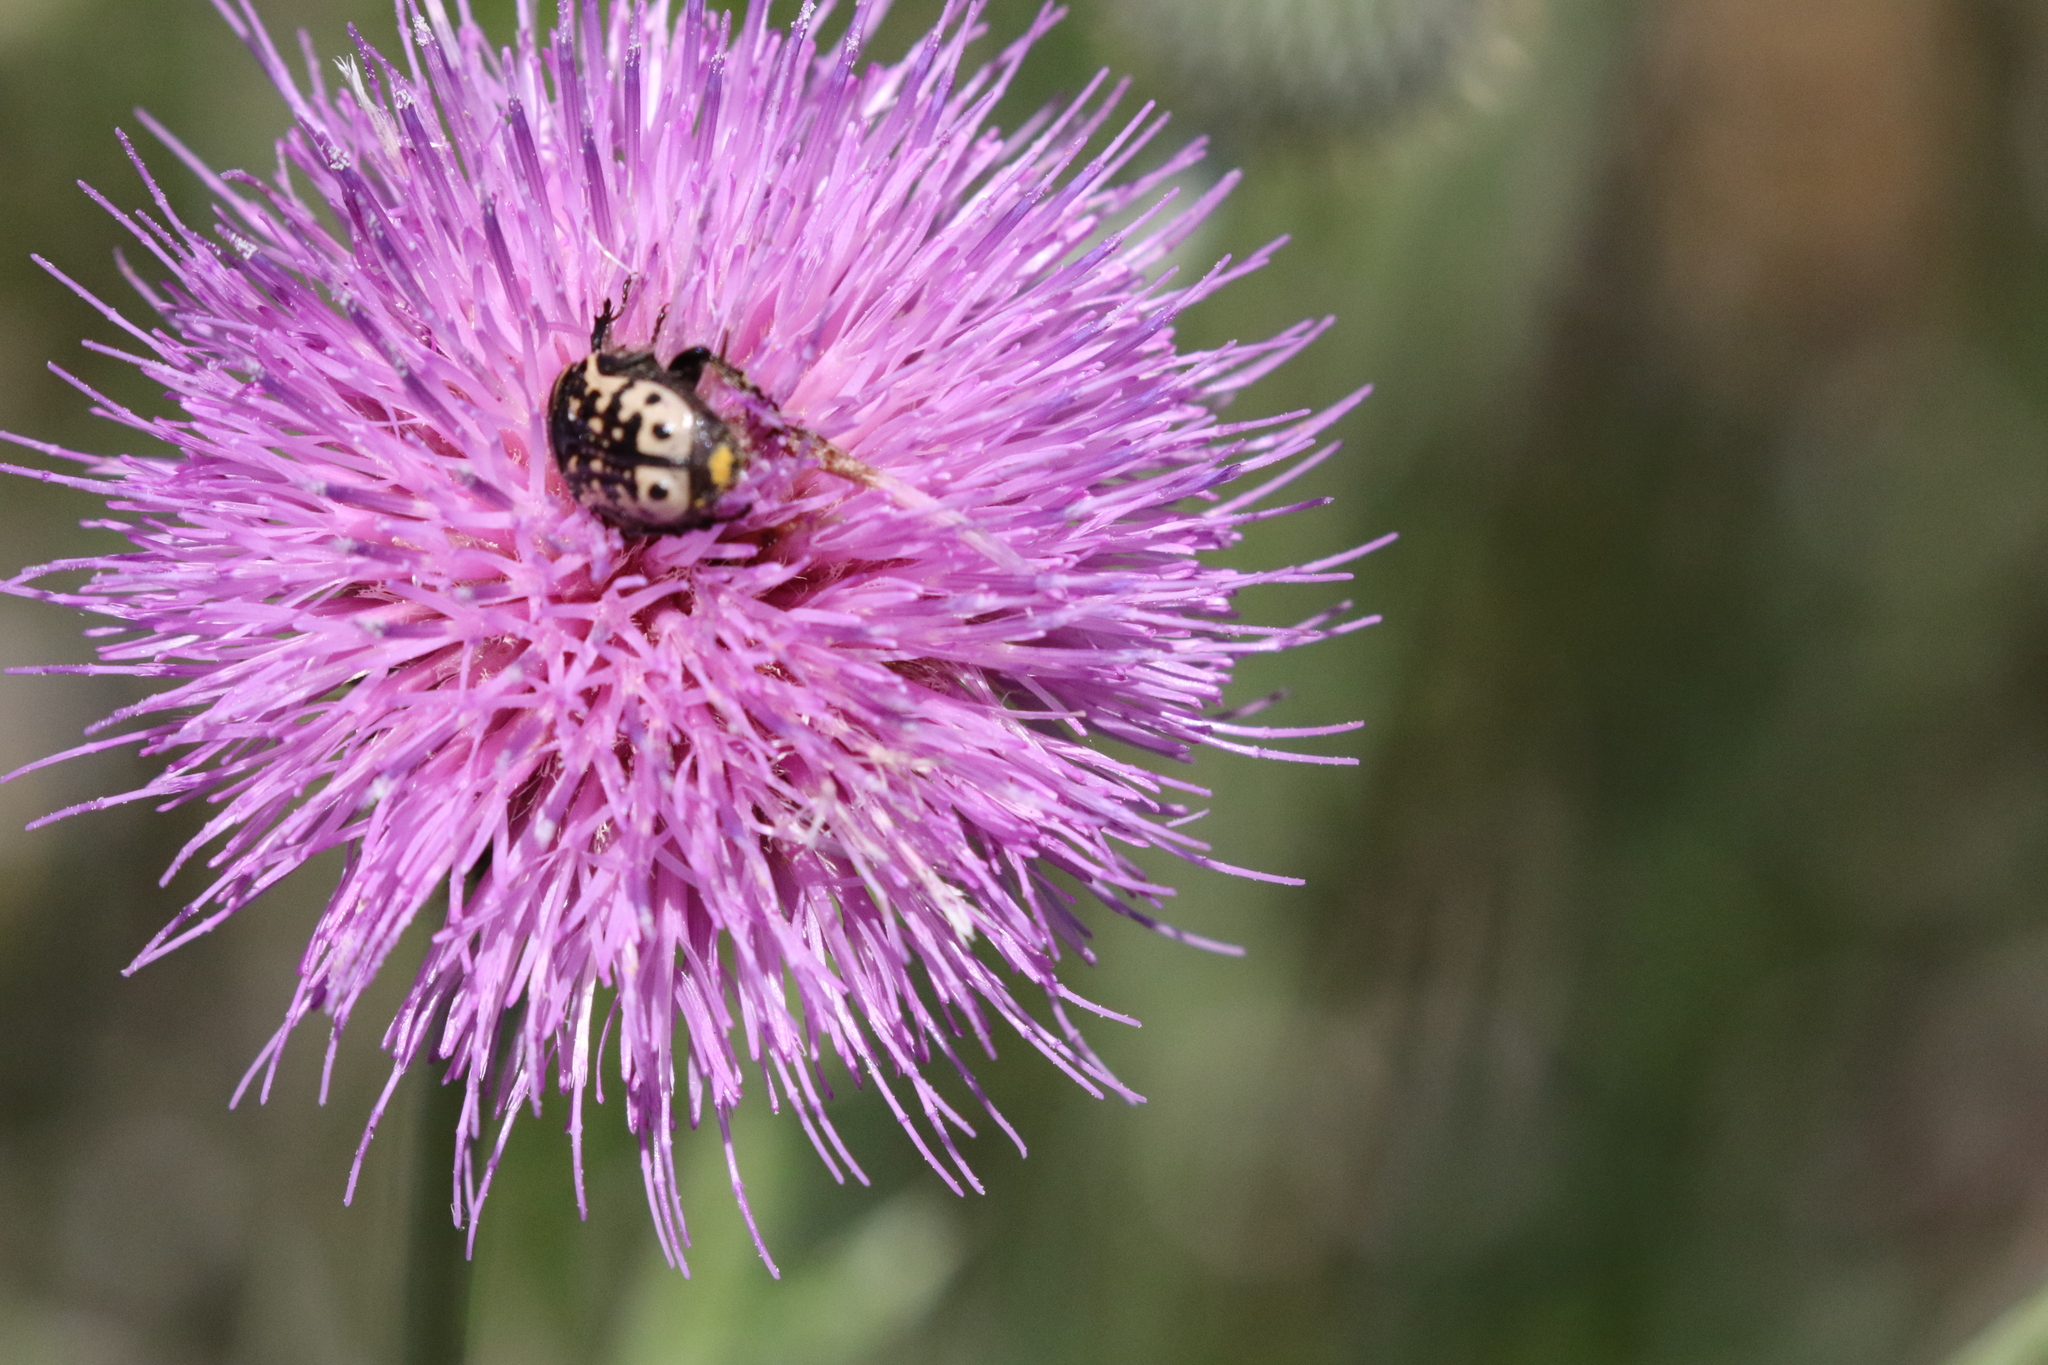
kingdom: Animalia
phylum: Arthropoda
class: Insecta
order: Coleoptera
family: Scarabaeidae
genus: Euphoria
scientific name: Euphoria kernii
